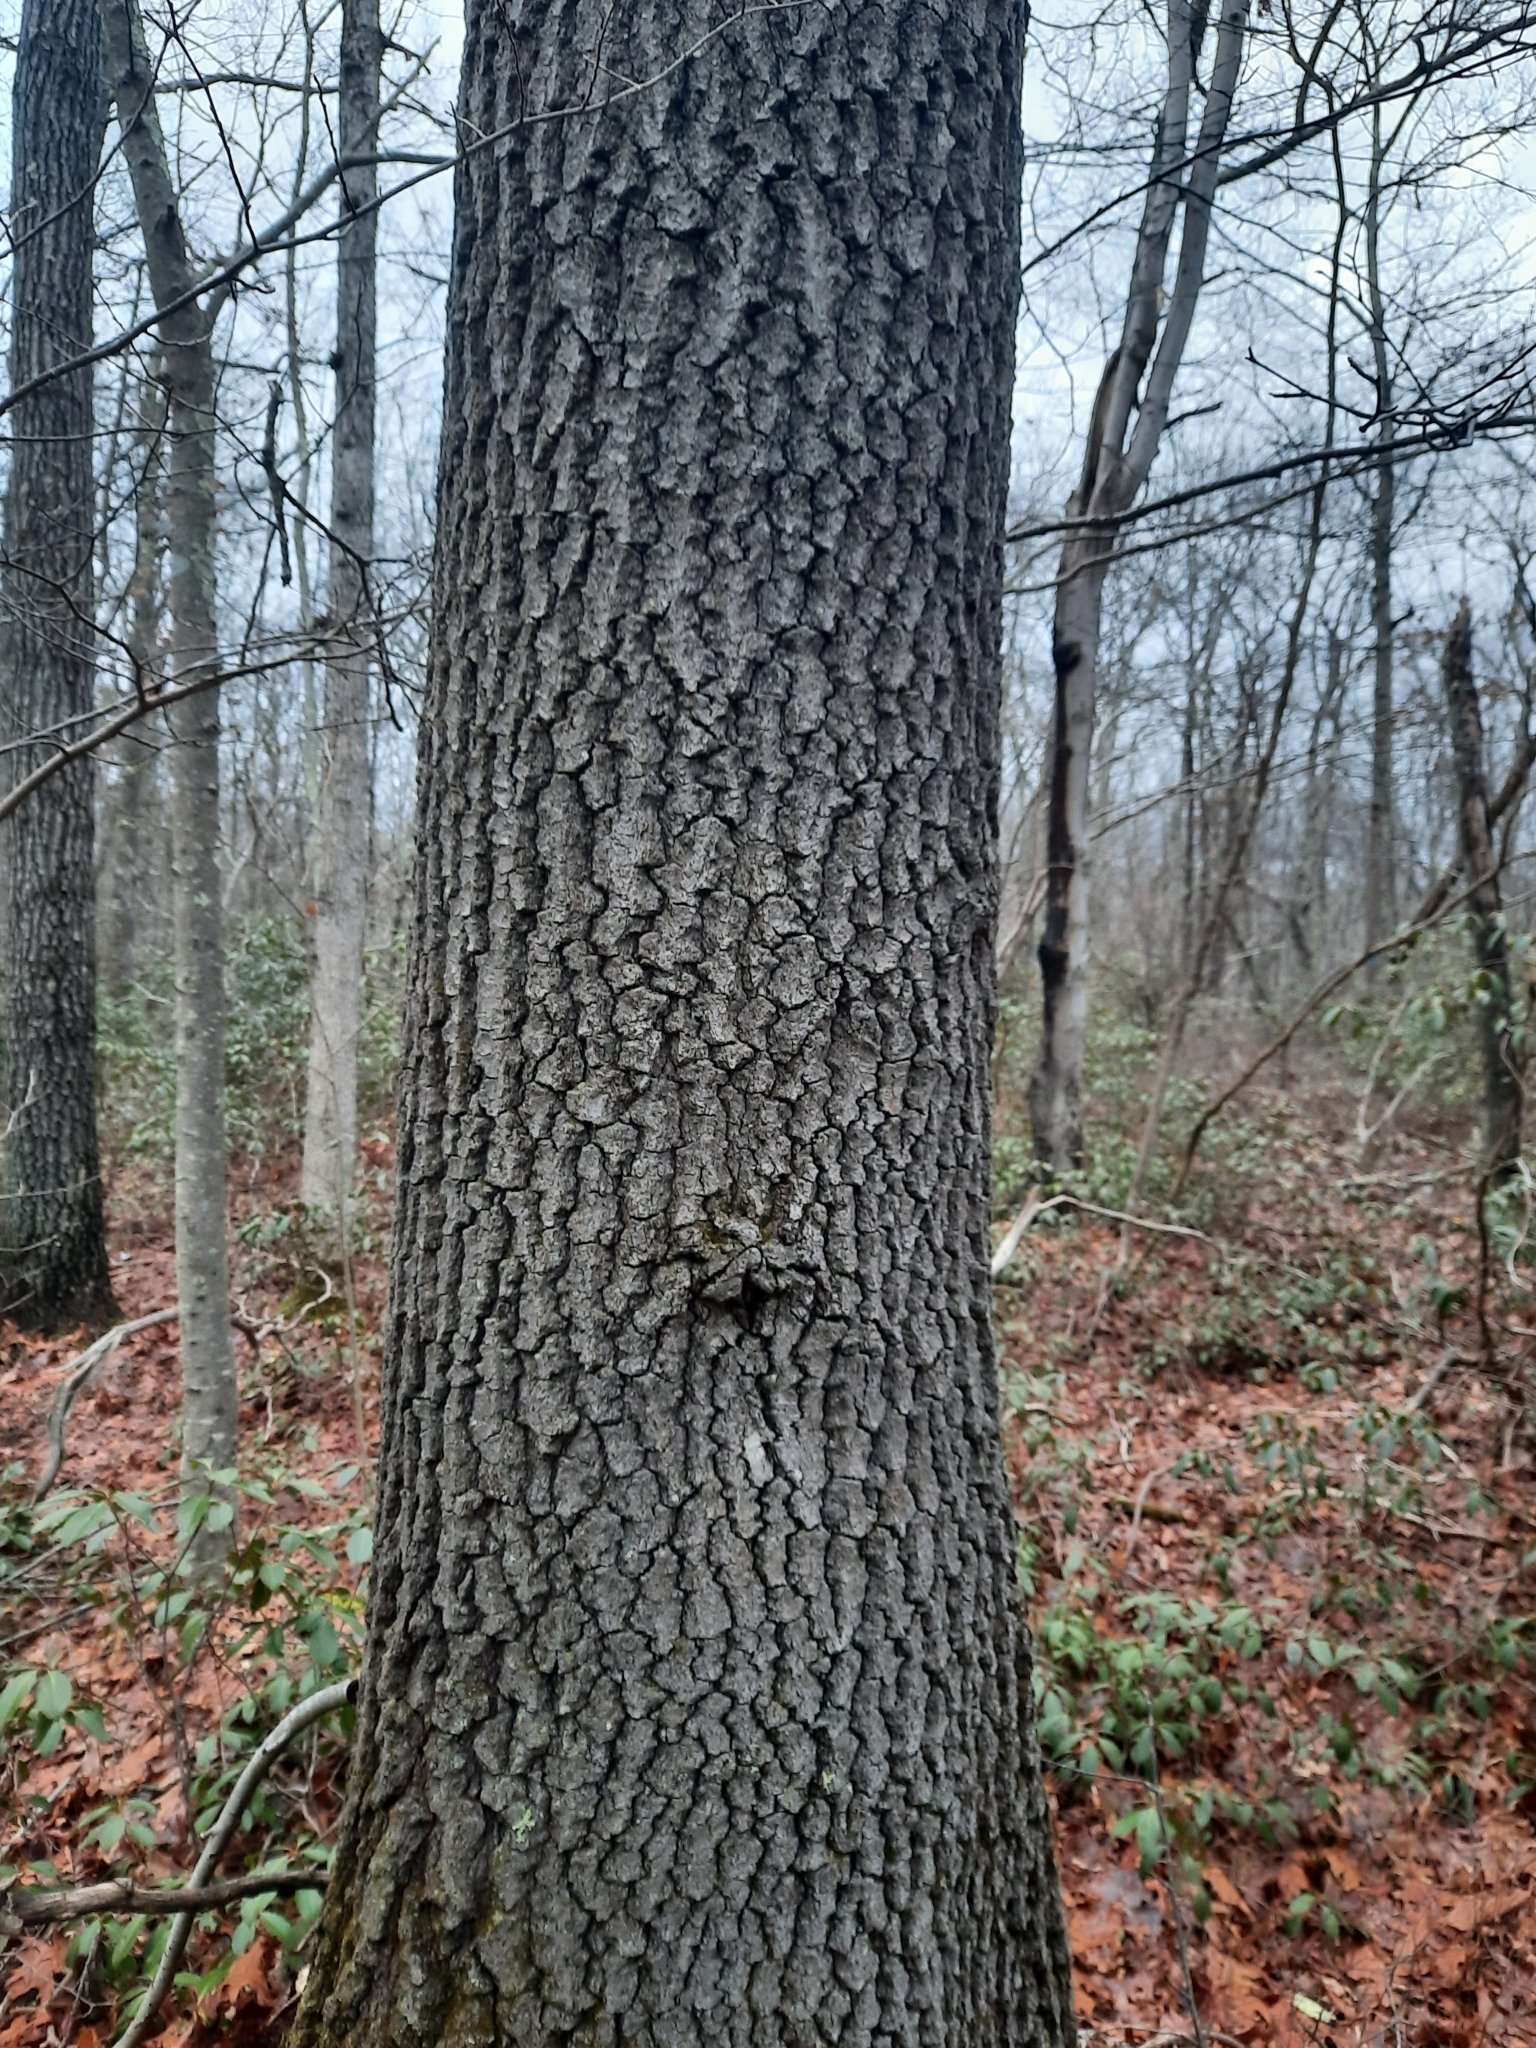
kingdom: Plantae
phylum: Tracheophyta
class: Magnoliopsida
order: Fagales
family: Fagaceae
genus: Quercus
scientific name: Quercus velutina
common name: Black oak
